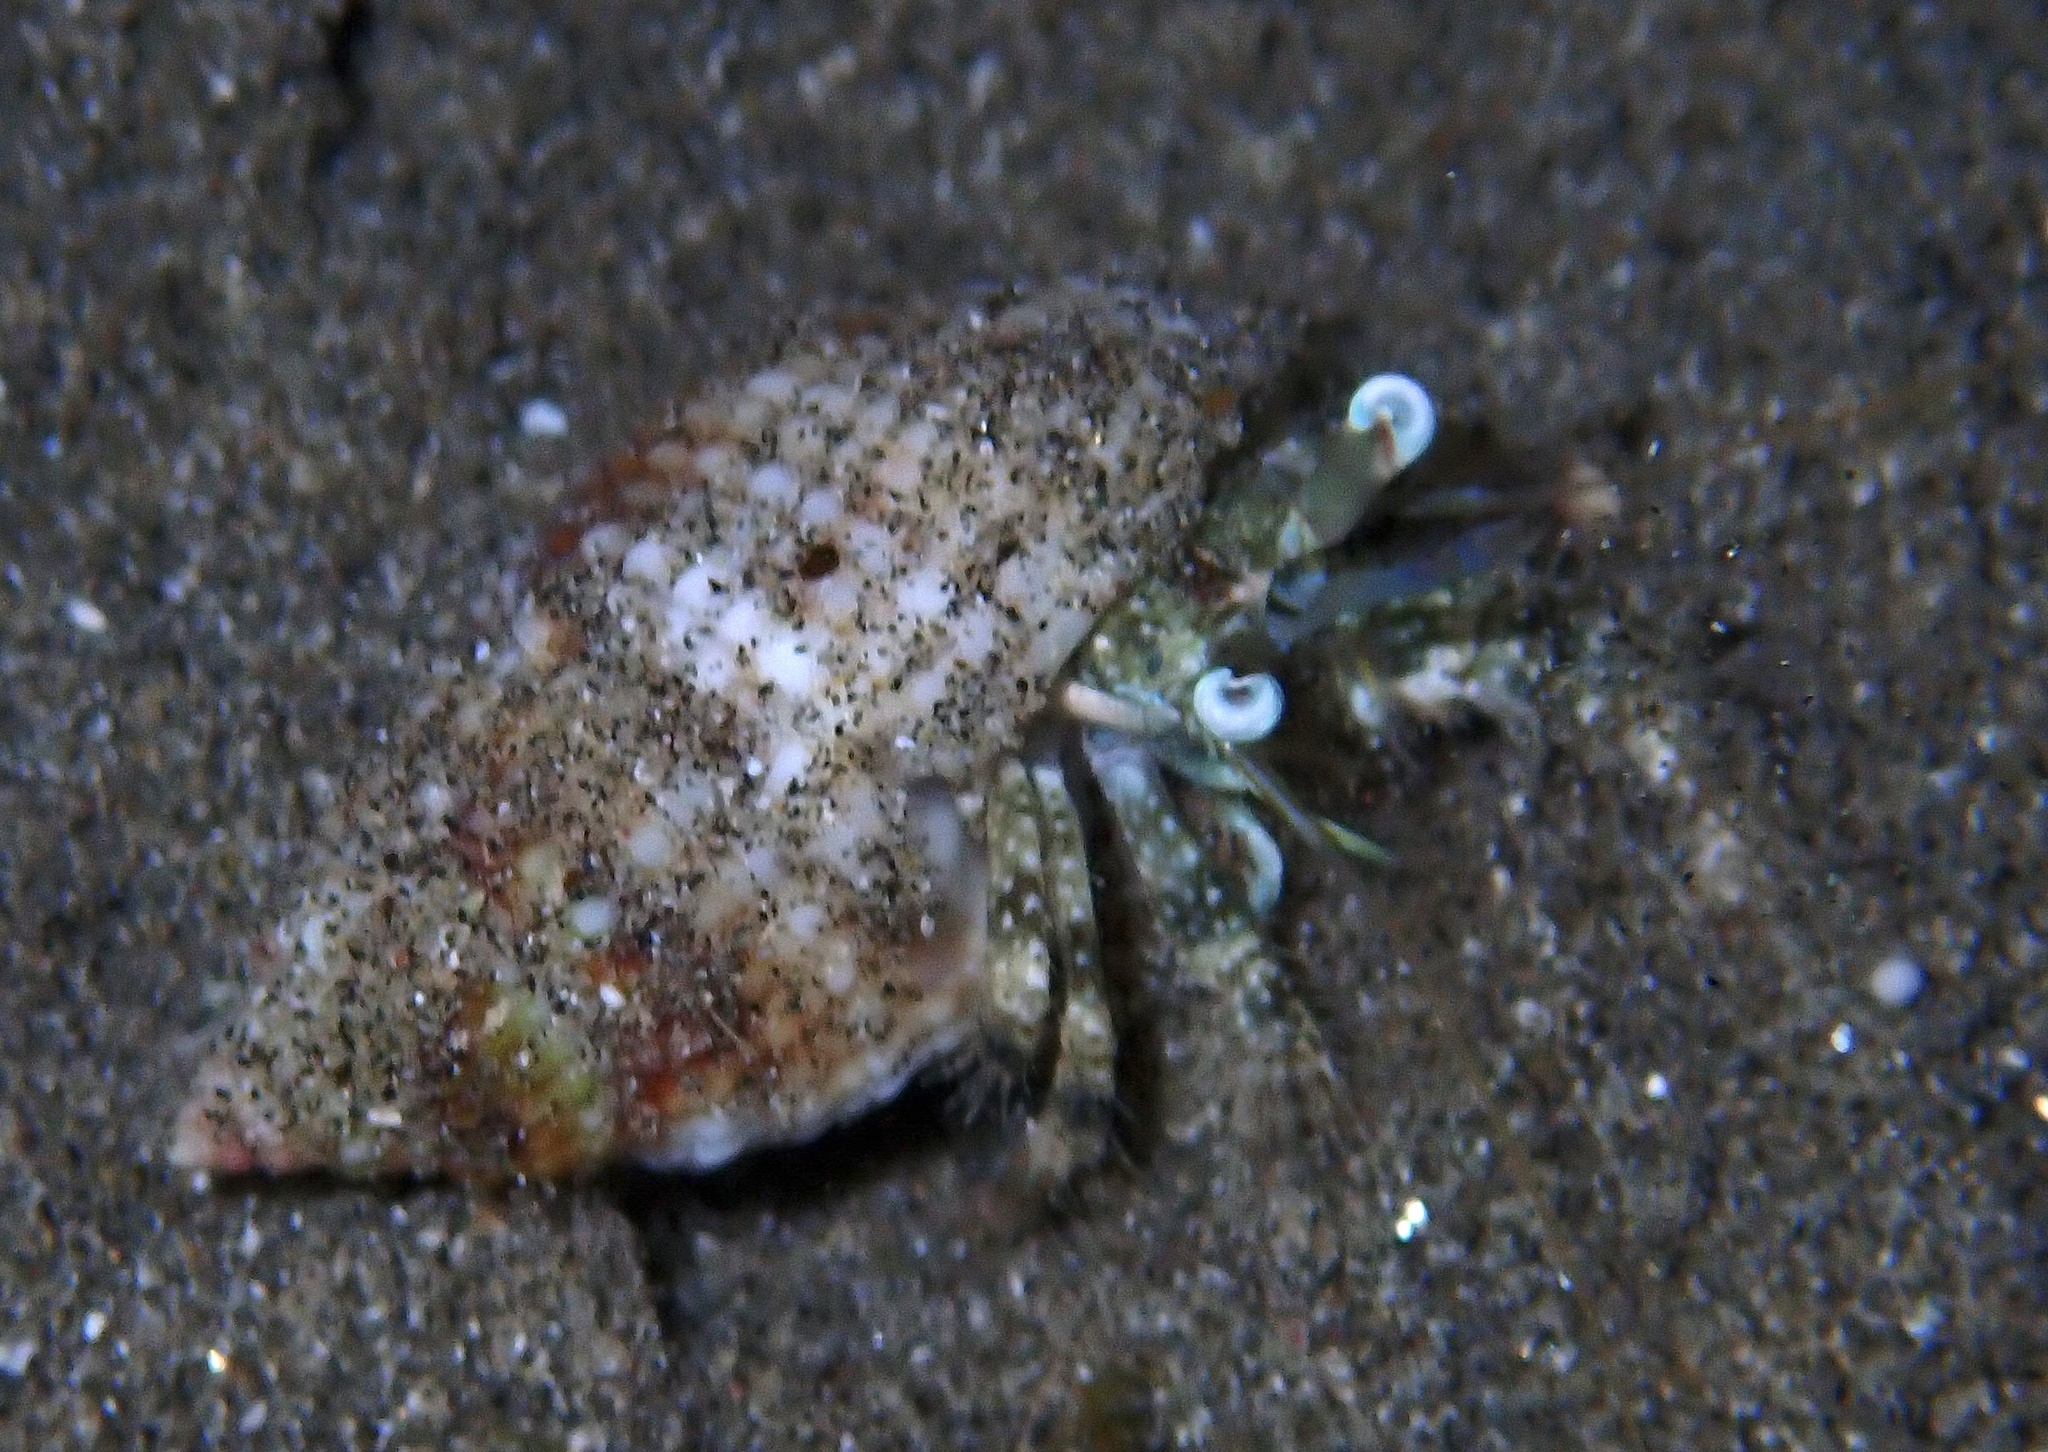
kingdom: Animalia
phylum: Arthropoda
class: Malacostraca
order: Decapoda
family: Diogenidae
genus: Dardanus
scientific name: Dardanus woodmasoni
